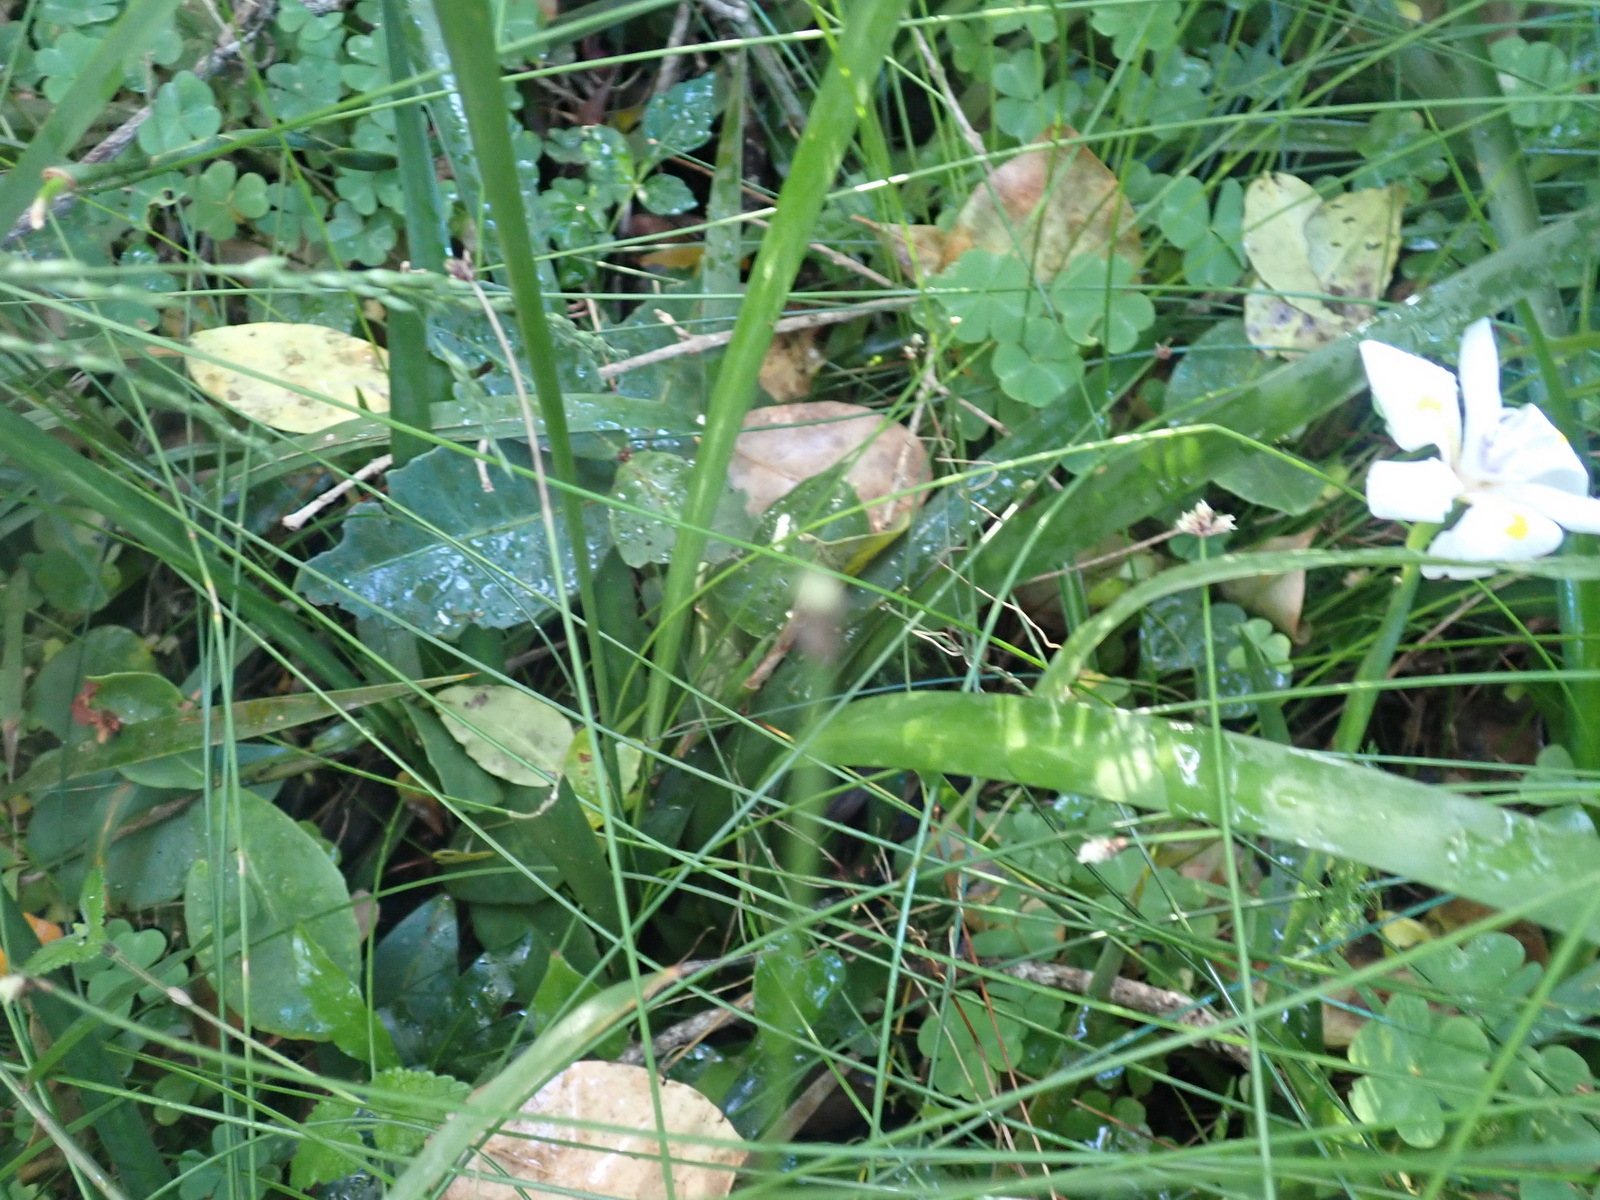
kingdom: Plantae
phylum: Tracheophyta
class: Liliopsida
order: Asparagales
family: Iridaceae
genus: Dietes
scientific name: Dietes iridioides
